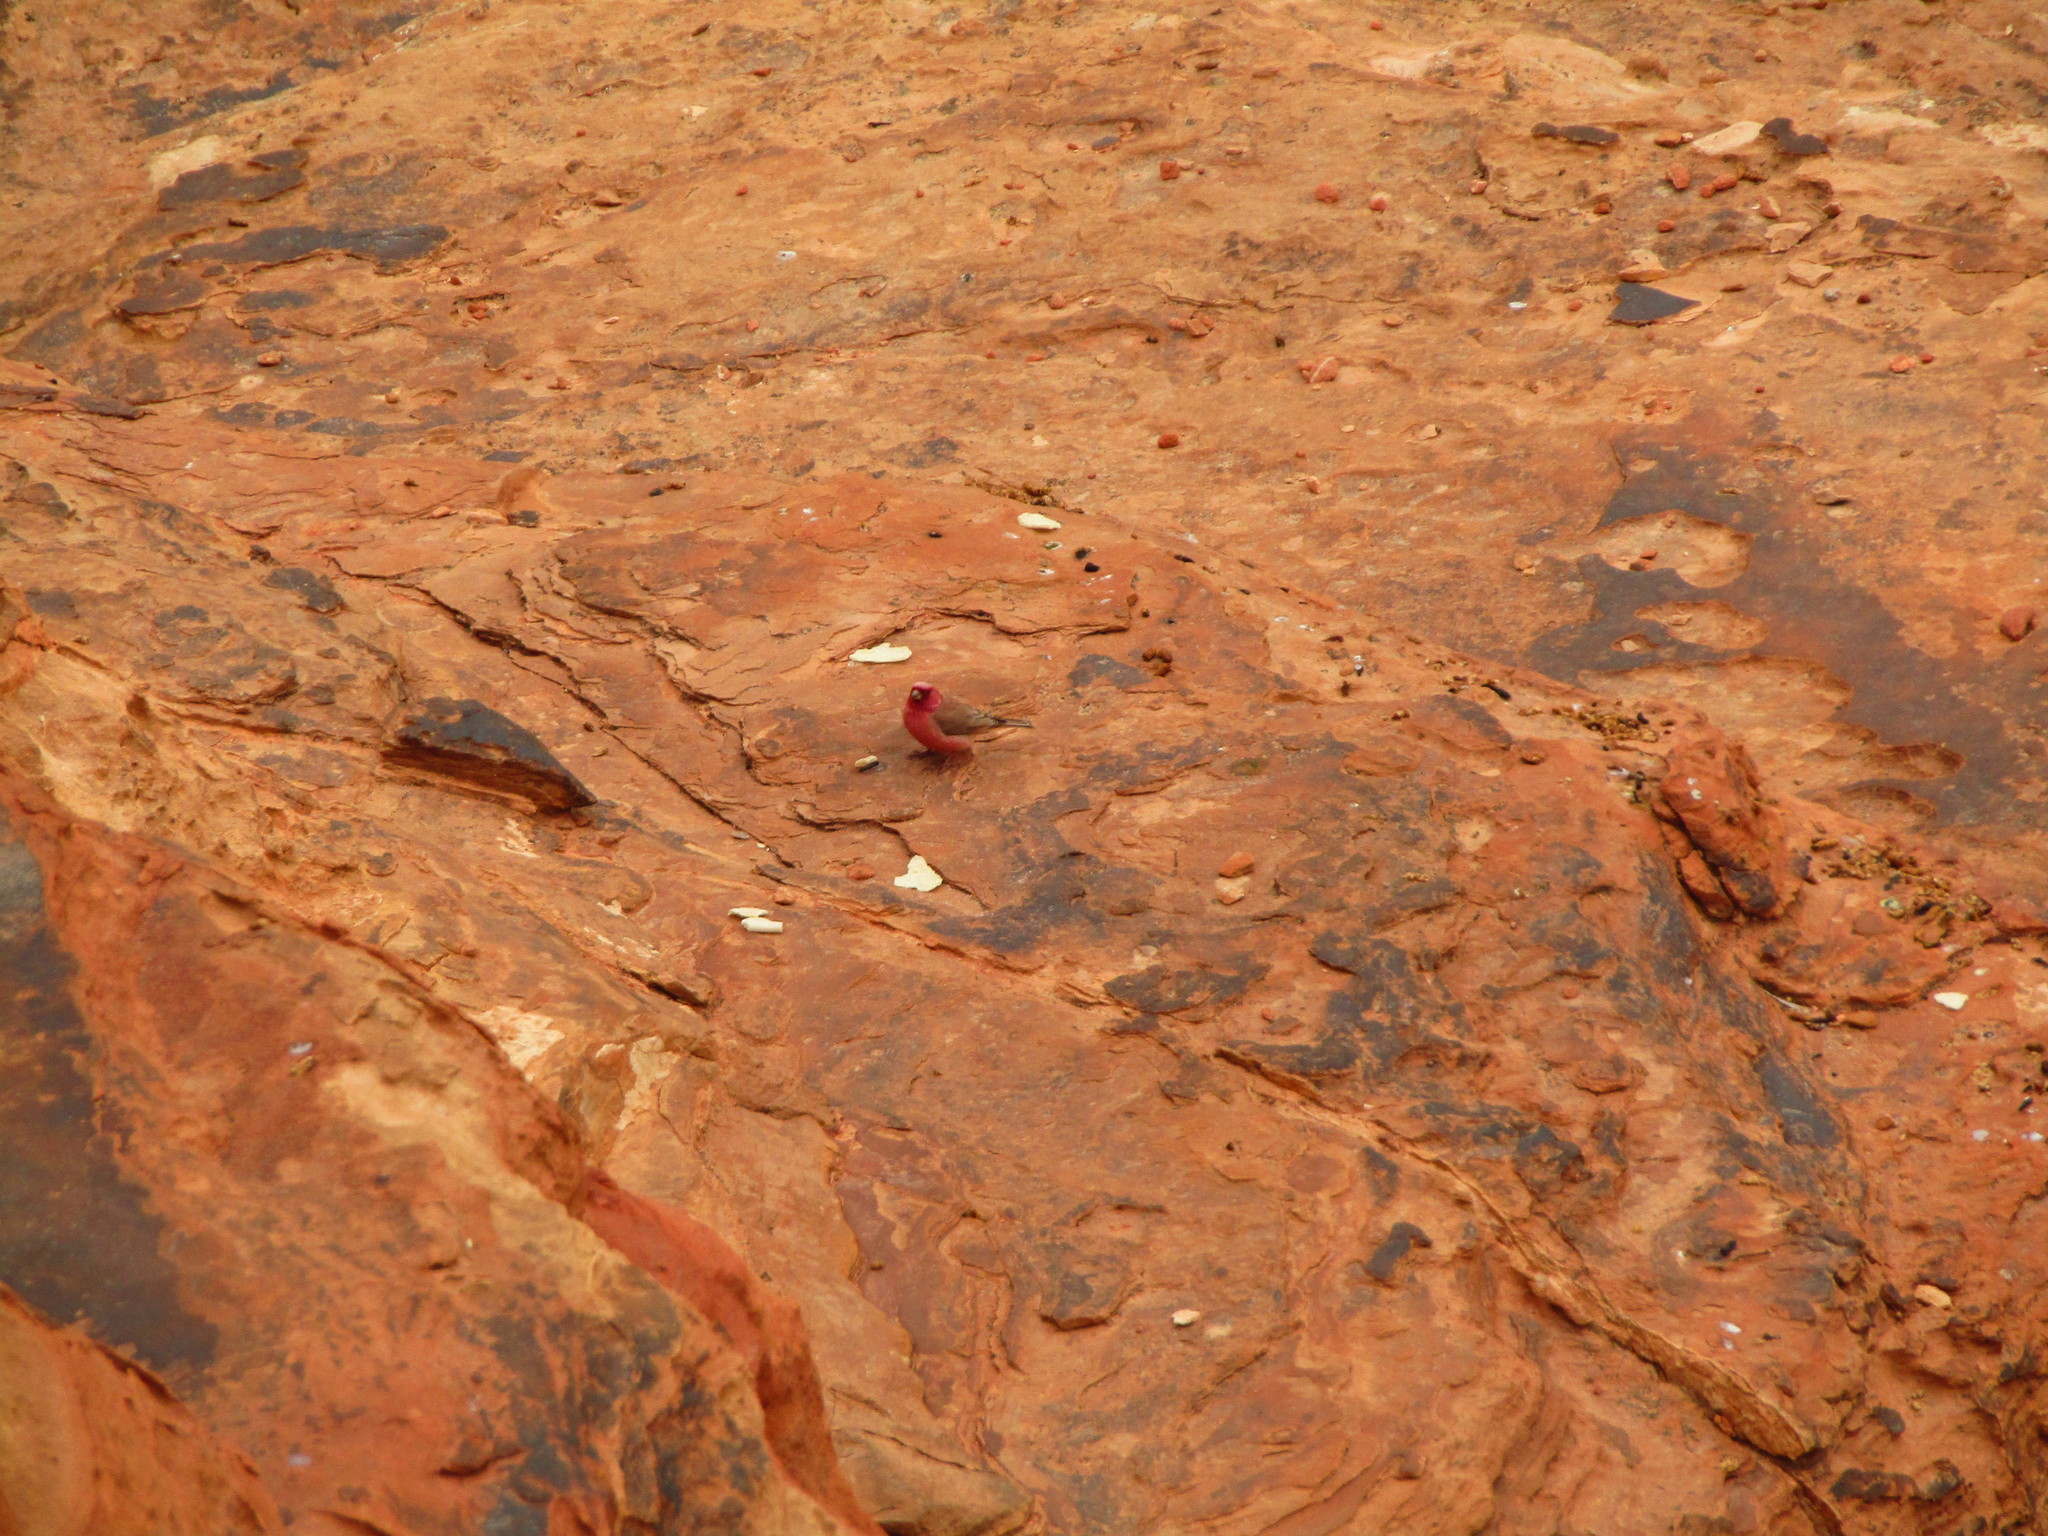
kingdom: Animalia
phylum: Chordata
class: Aves
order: Passeriformes
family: Fringillidae
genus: Carpodacus
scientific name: Carpodacus synoicus
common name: Sinai rosefinch
